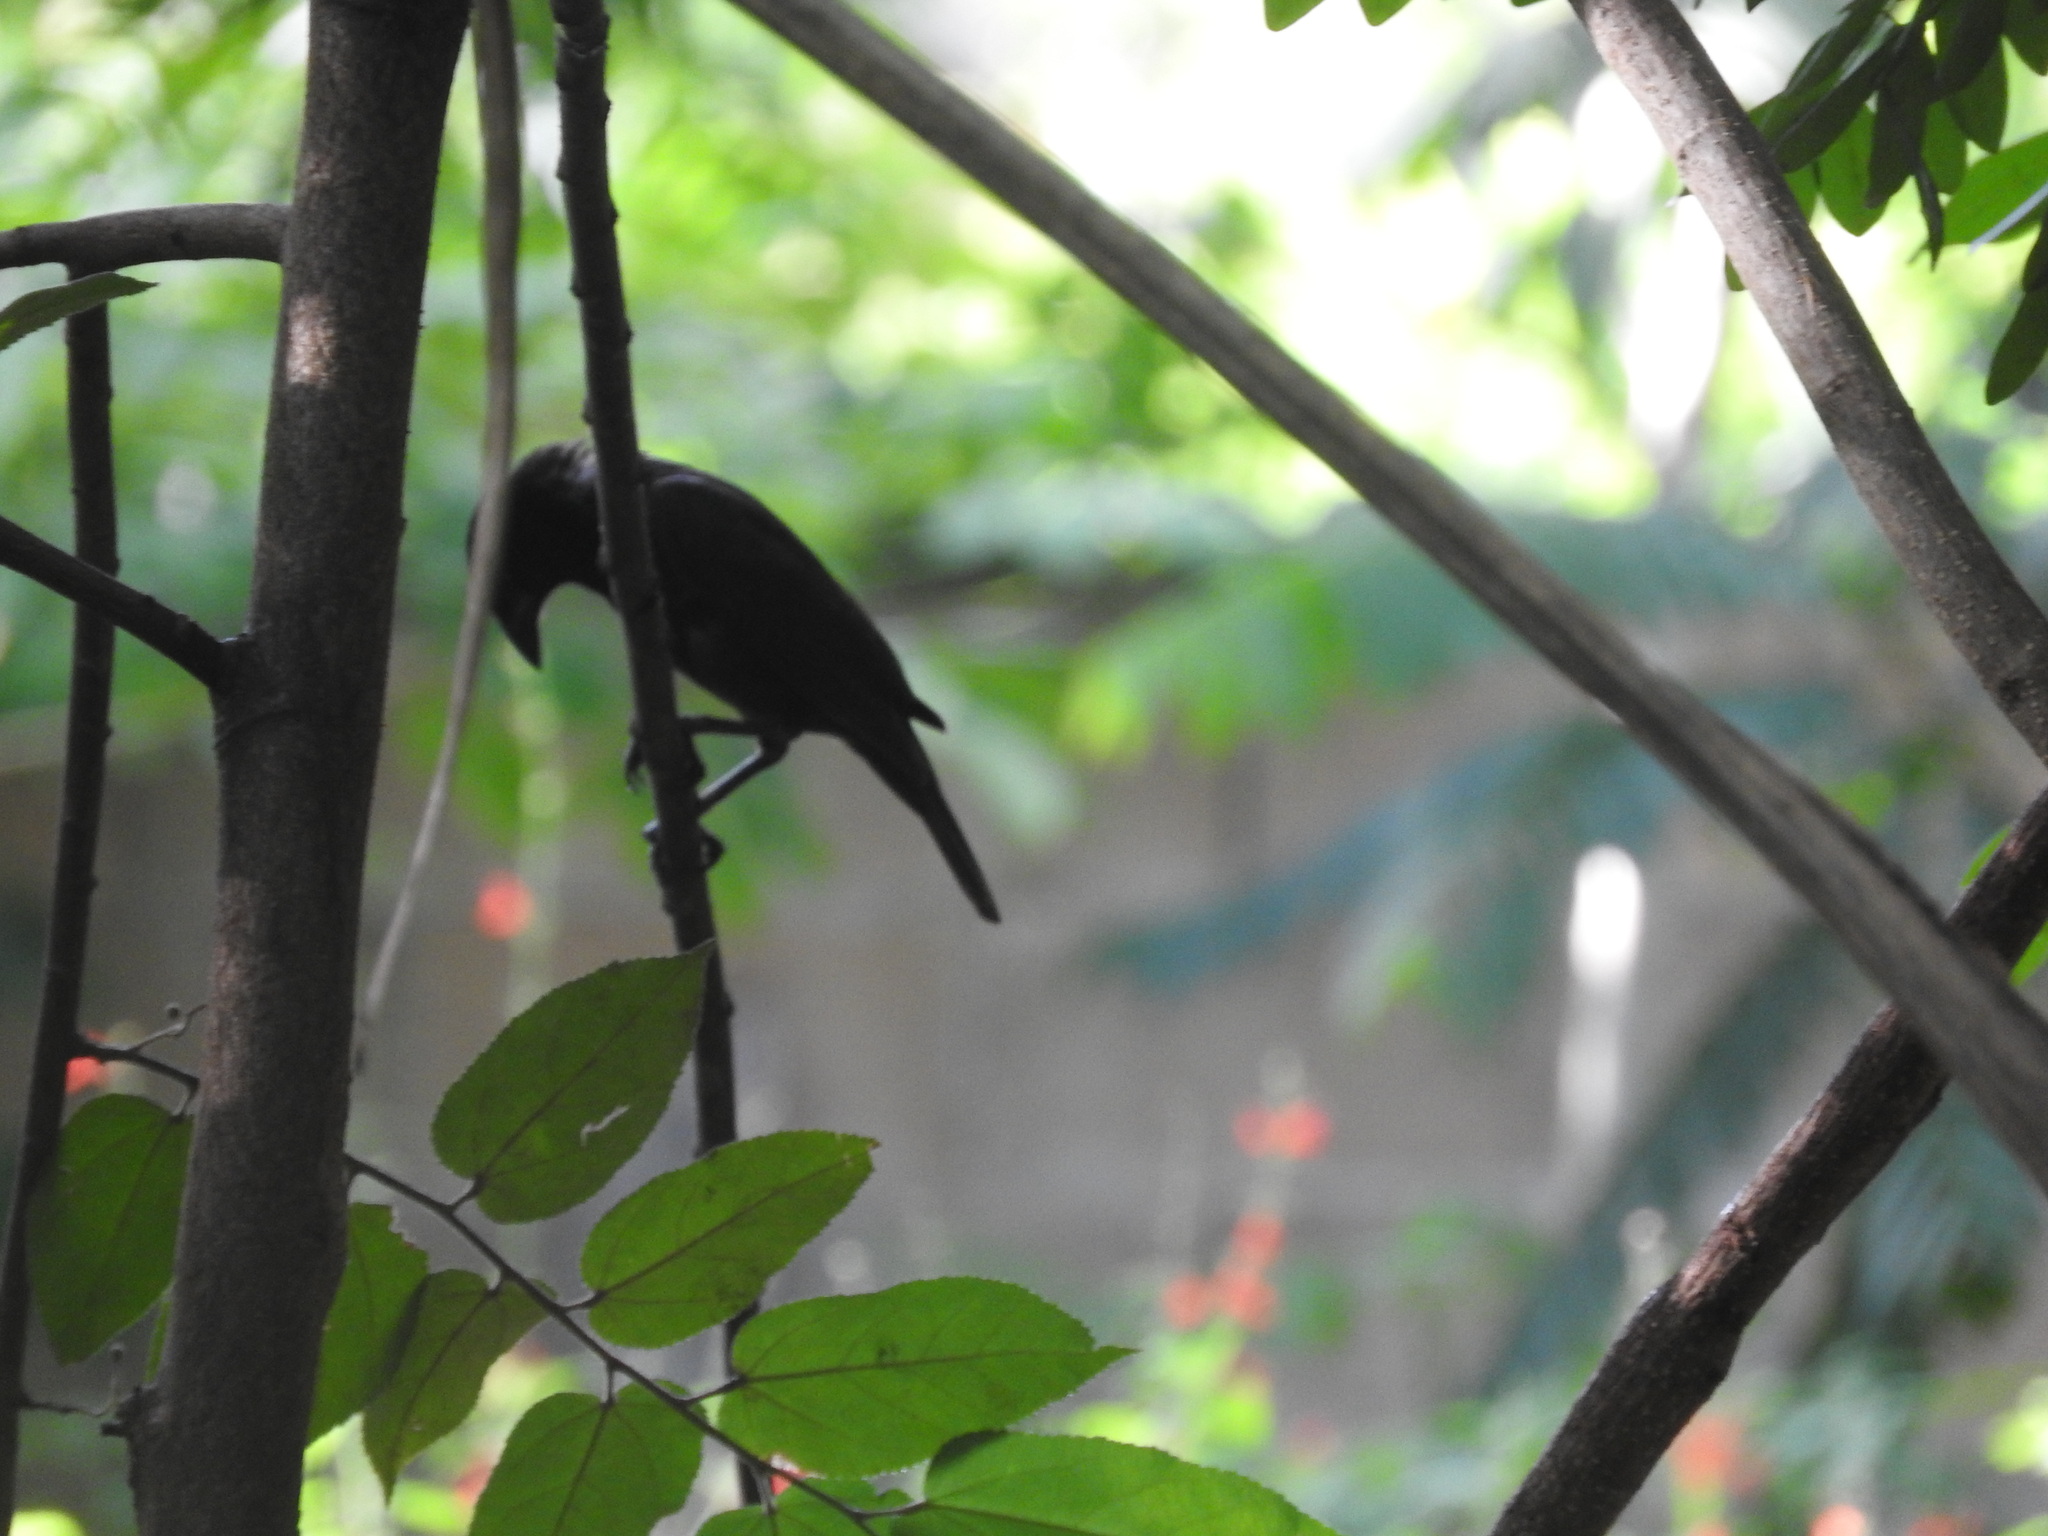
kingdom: Animalia
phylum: Chordata
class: Aves
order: Passeriformes
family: Icteridae
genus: Molothrus
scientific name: Molothrus aeneus
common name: Bronzed cowbird
